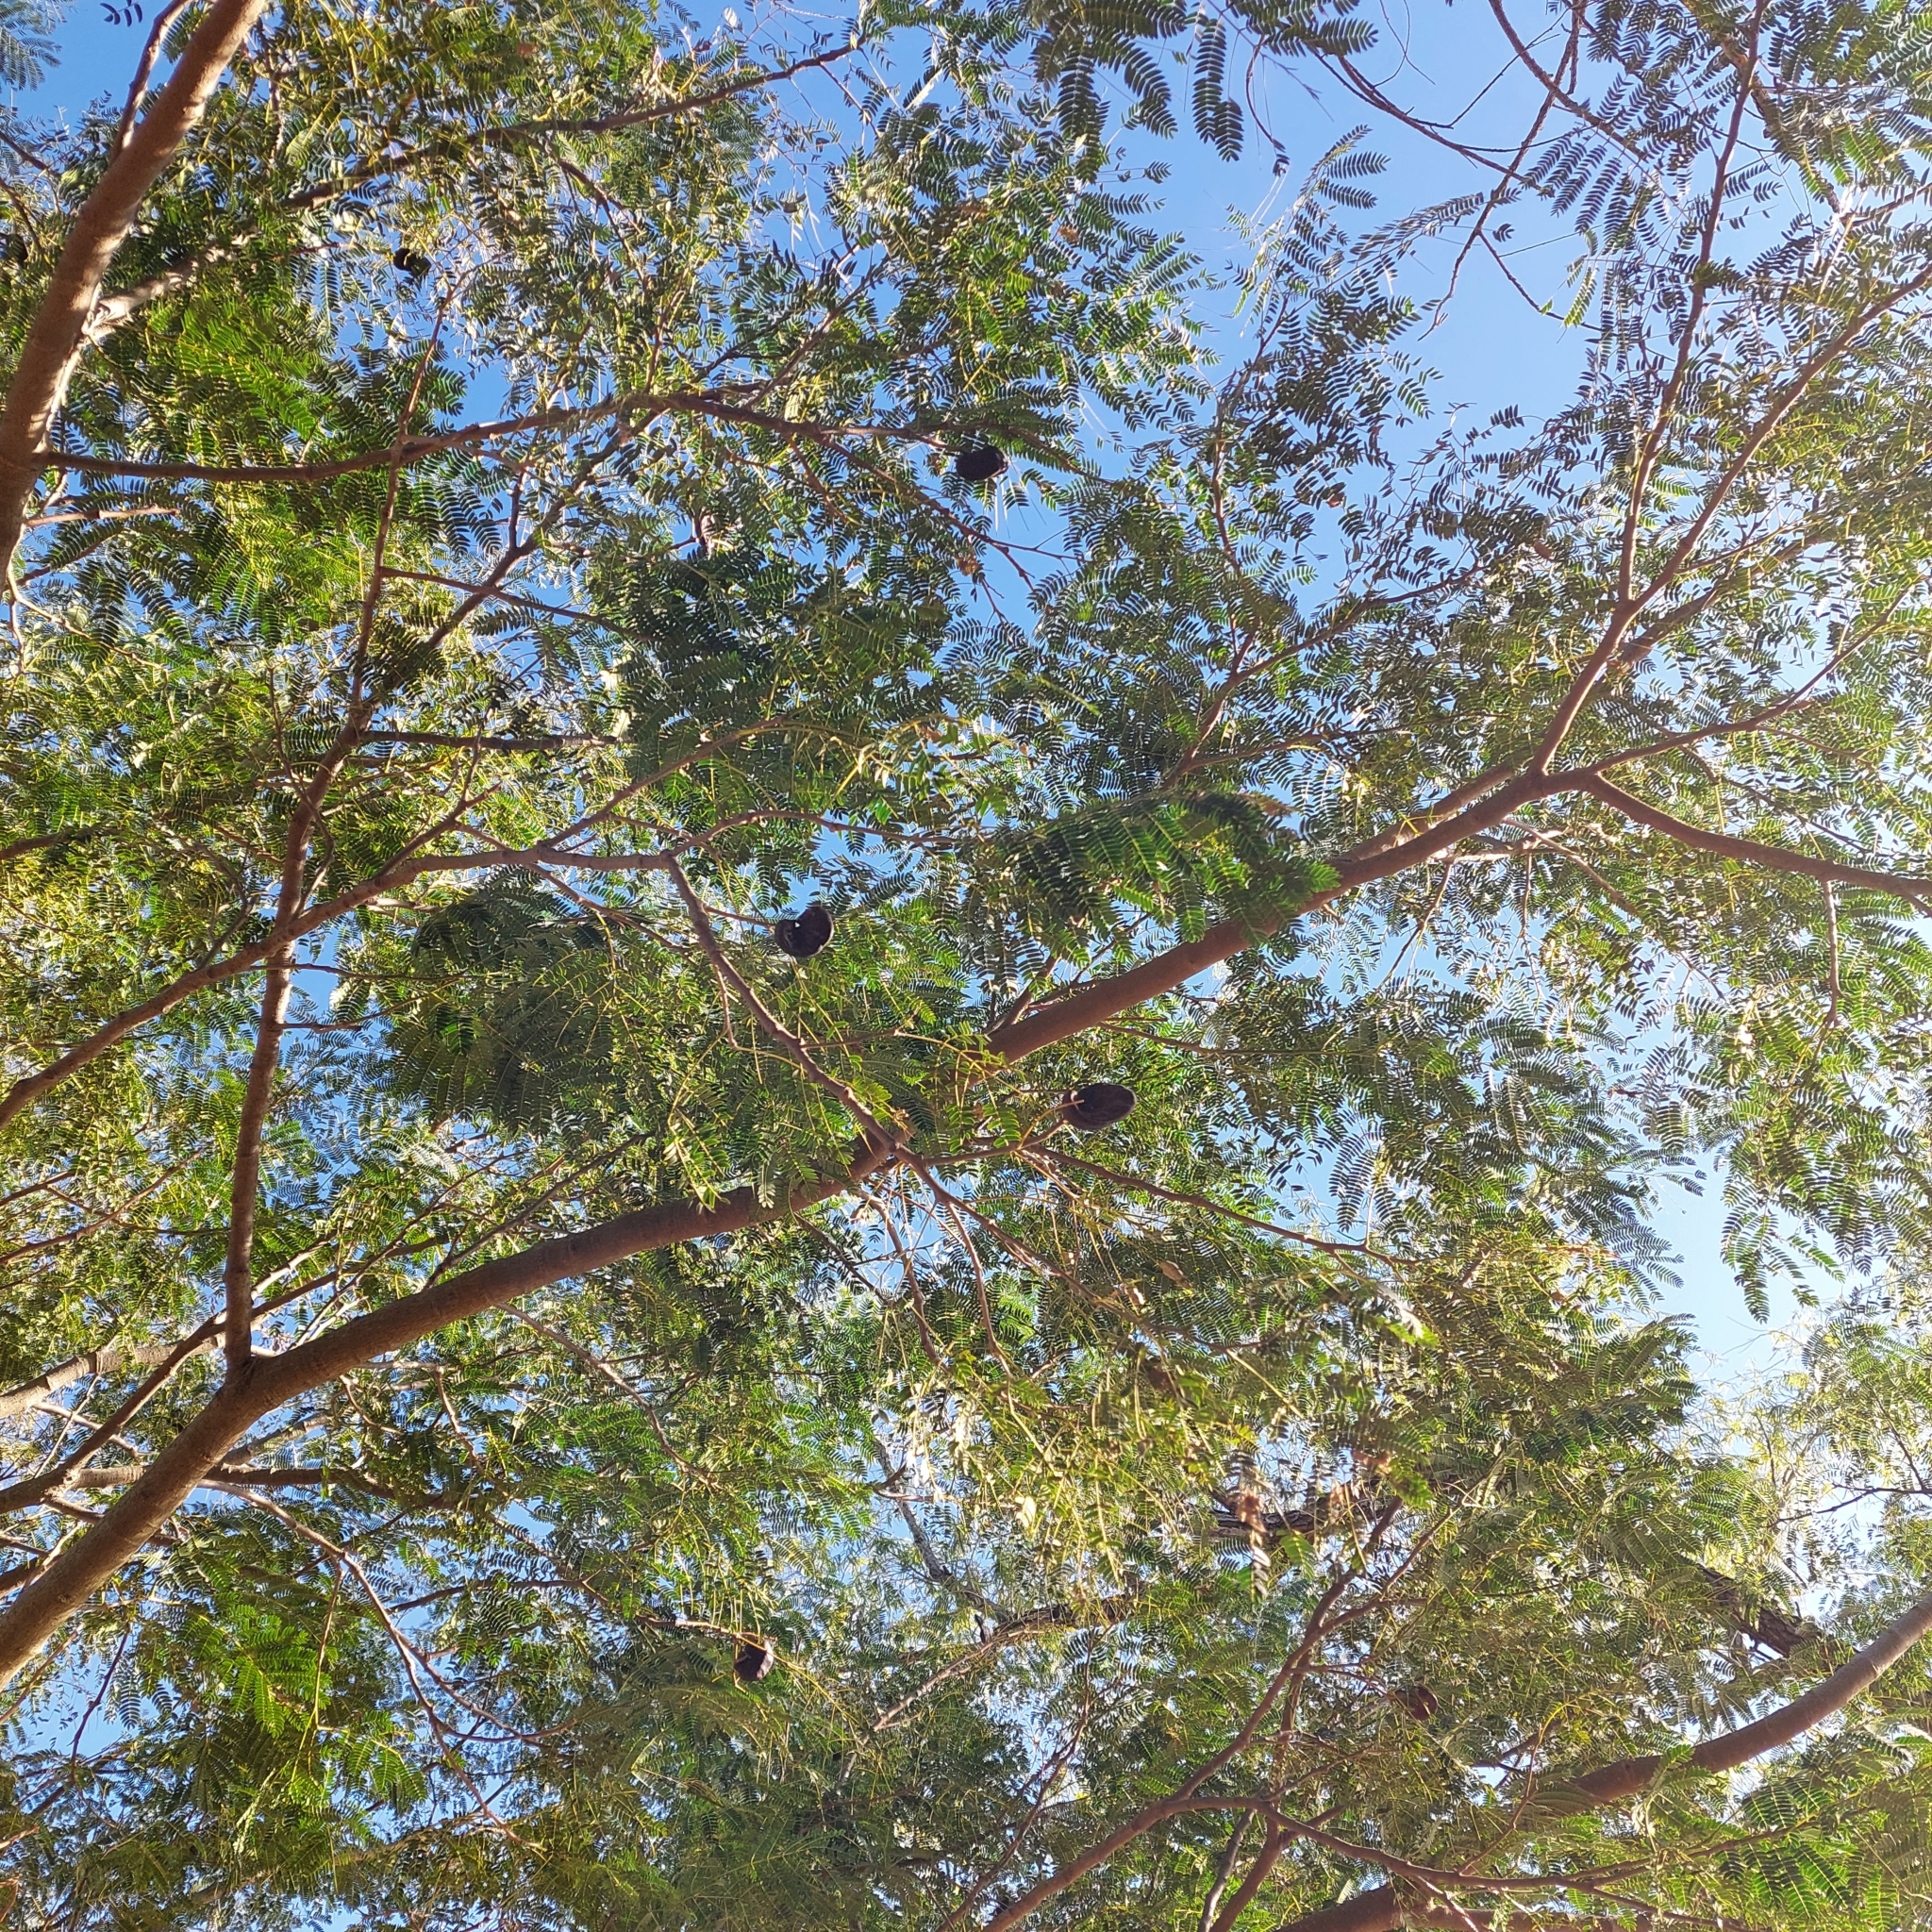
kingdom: Plantae
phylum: Tracheophyta
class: Magnoliopsida
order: Fabales
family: Fabaceae
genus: Enterolobium
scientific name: Enterolobium contortisiliquum
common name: Pacara earpod tree
